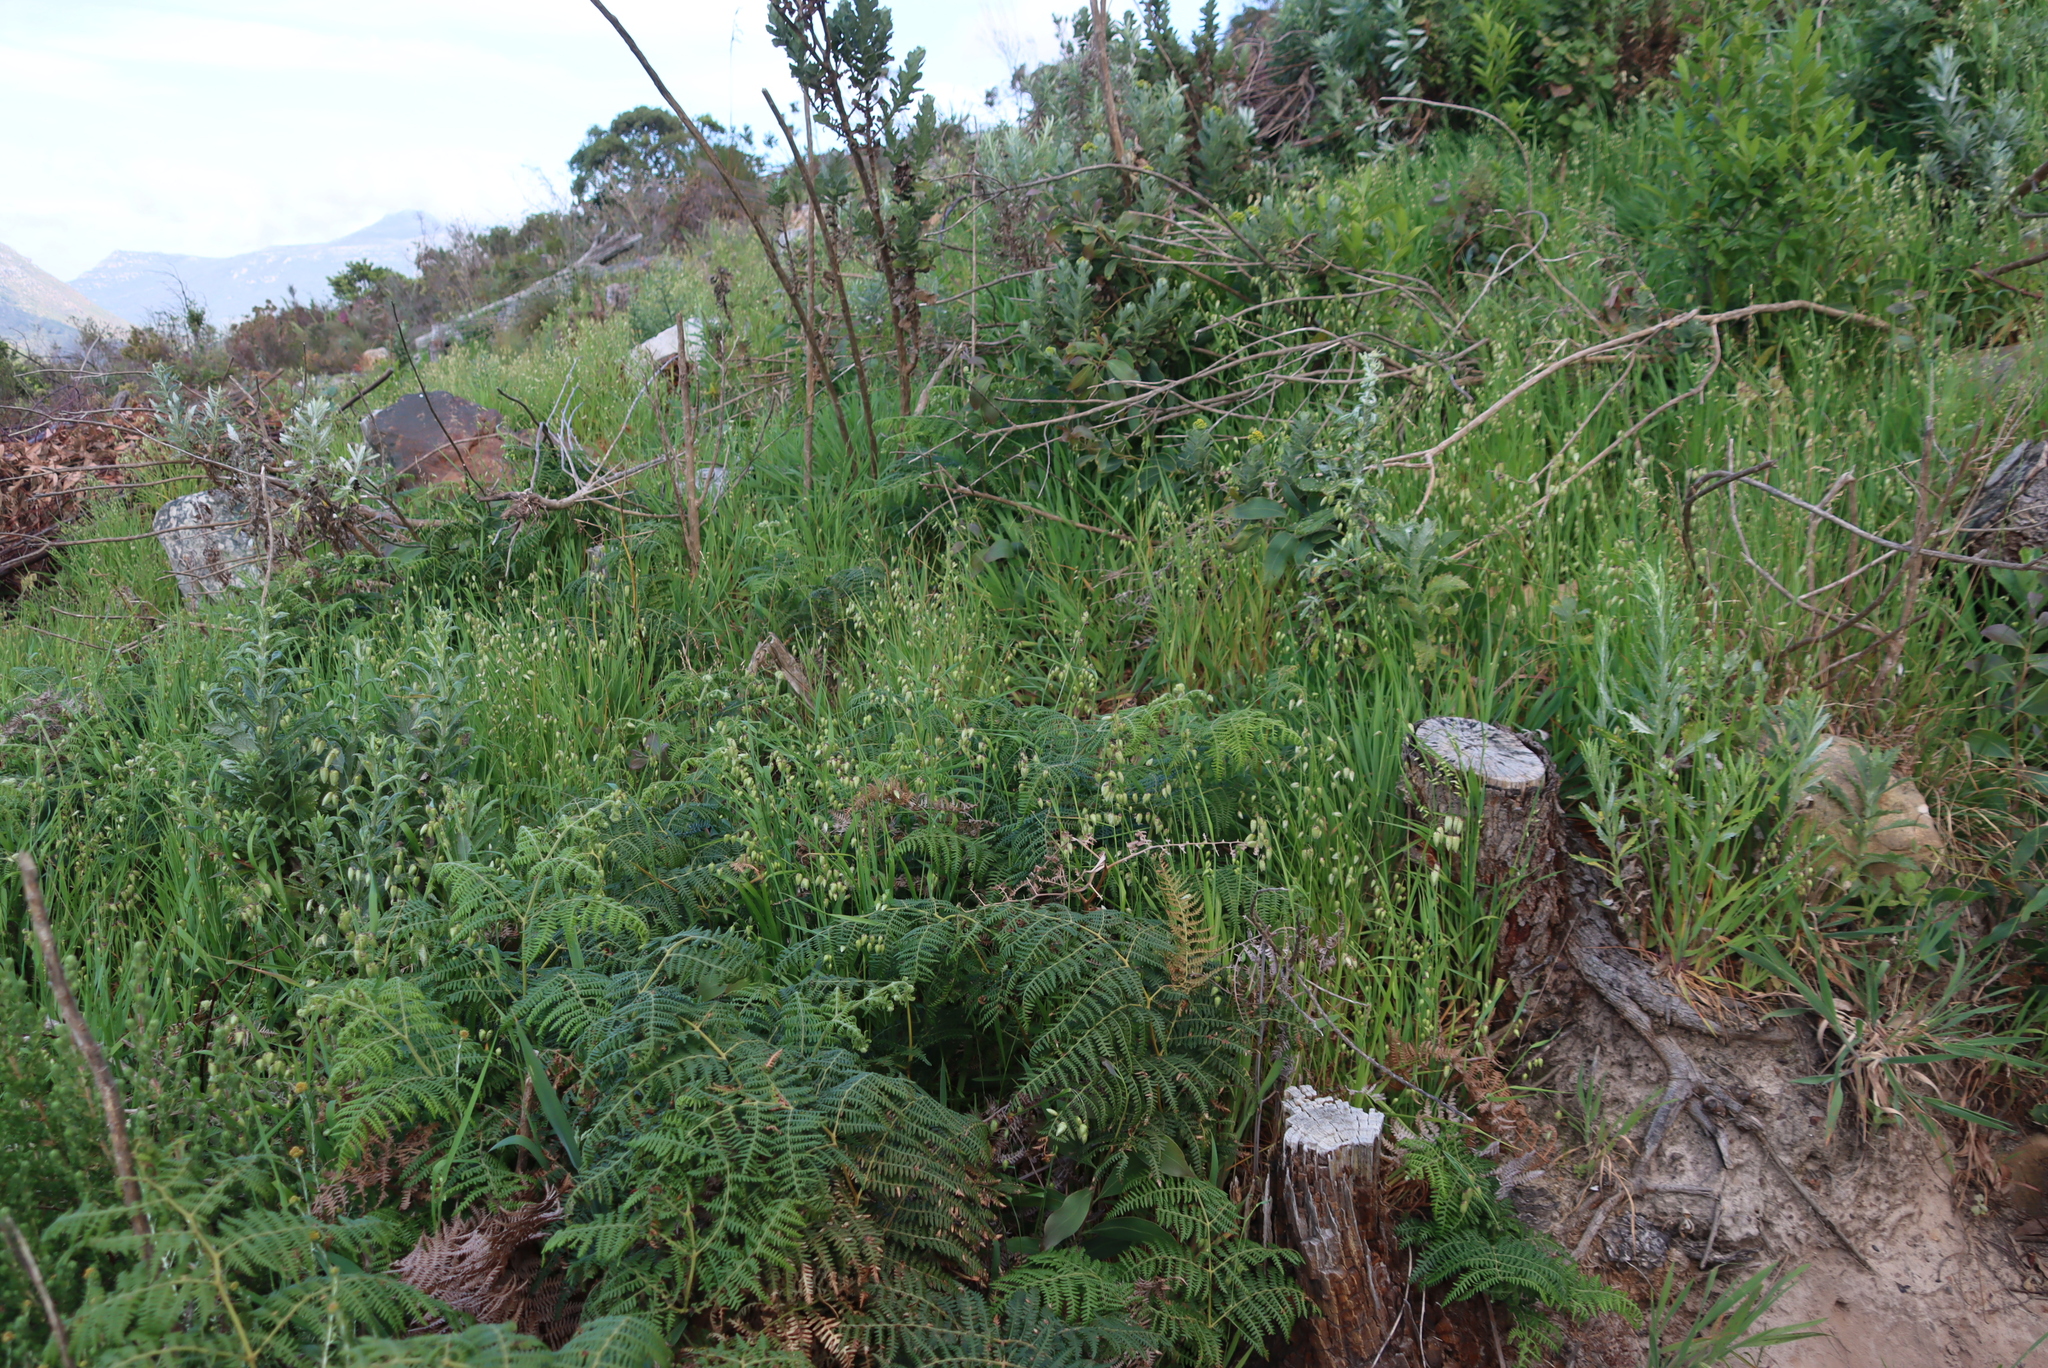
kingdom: Plantae
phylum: Tracheophyta
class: Liliopsida
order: Poales
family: Poaceae
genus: Briza
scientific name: Briza maxima
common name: Big quakinggrass
